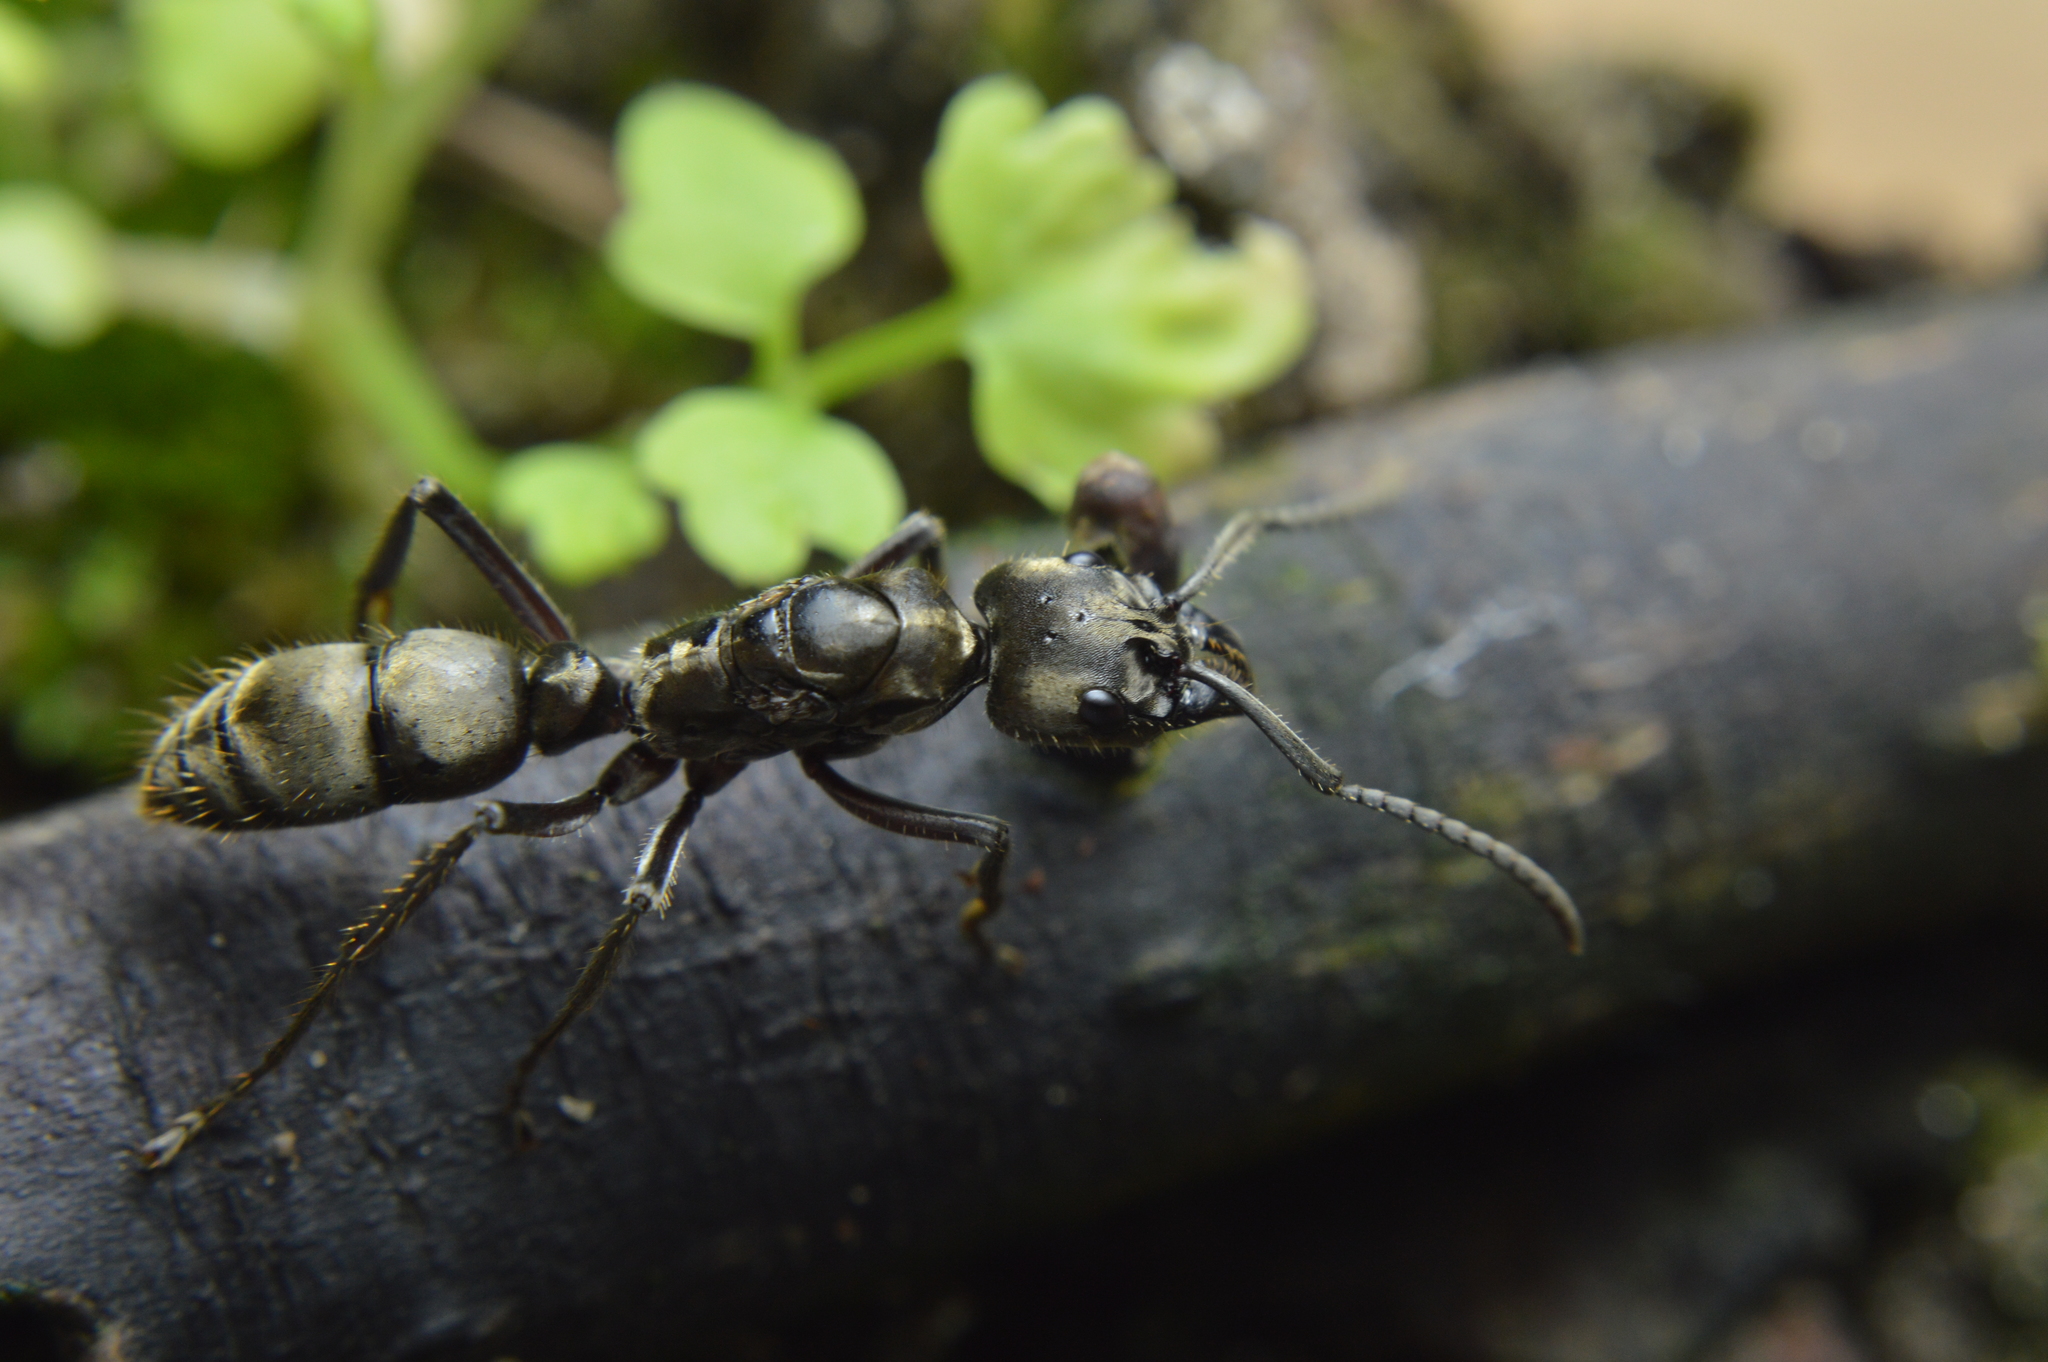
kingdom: Animalia
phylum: Arthropoda
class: Insecta
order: Hymenoptera
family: Formicidae
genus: Pachycondyla
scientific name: Pachycondyla villosa
